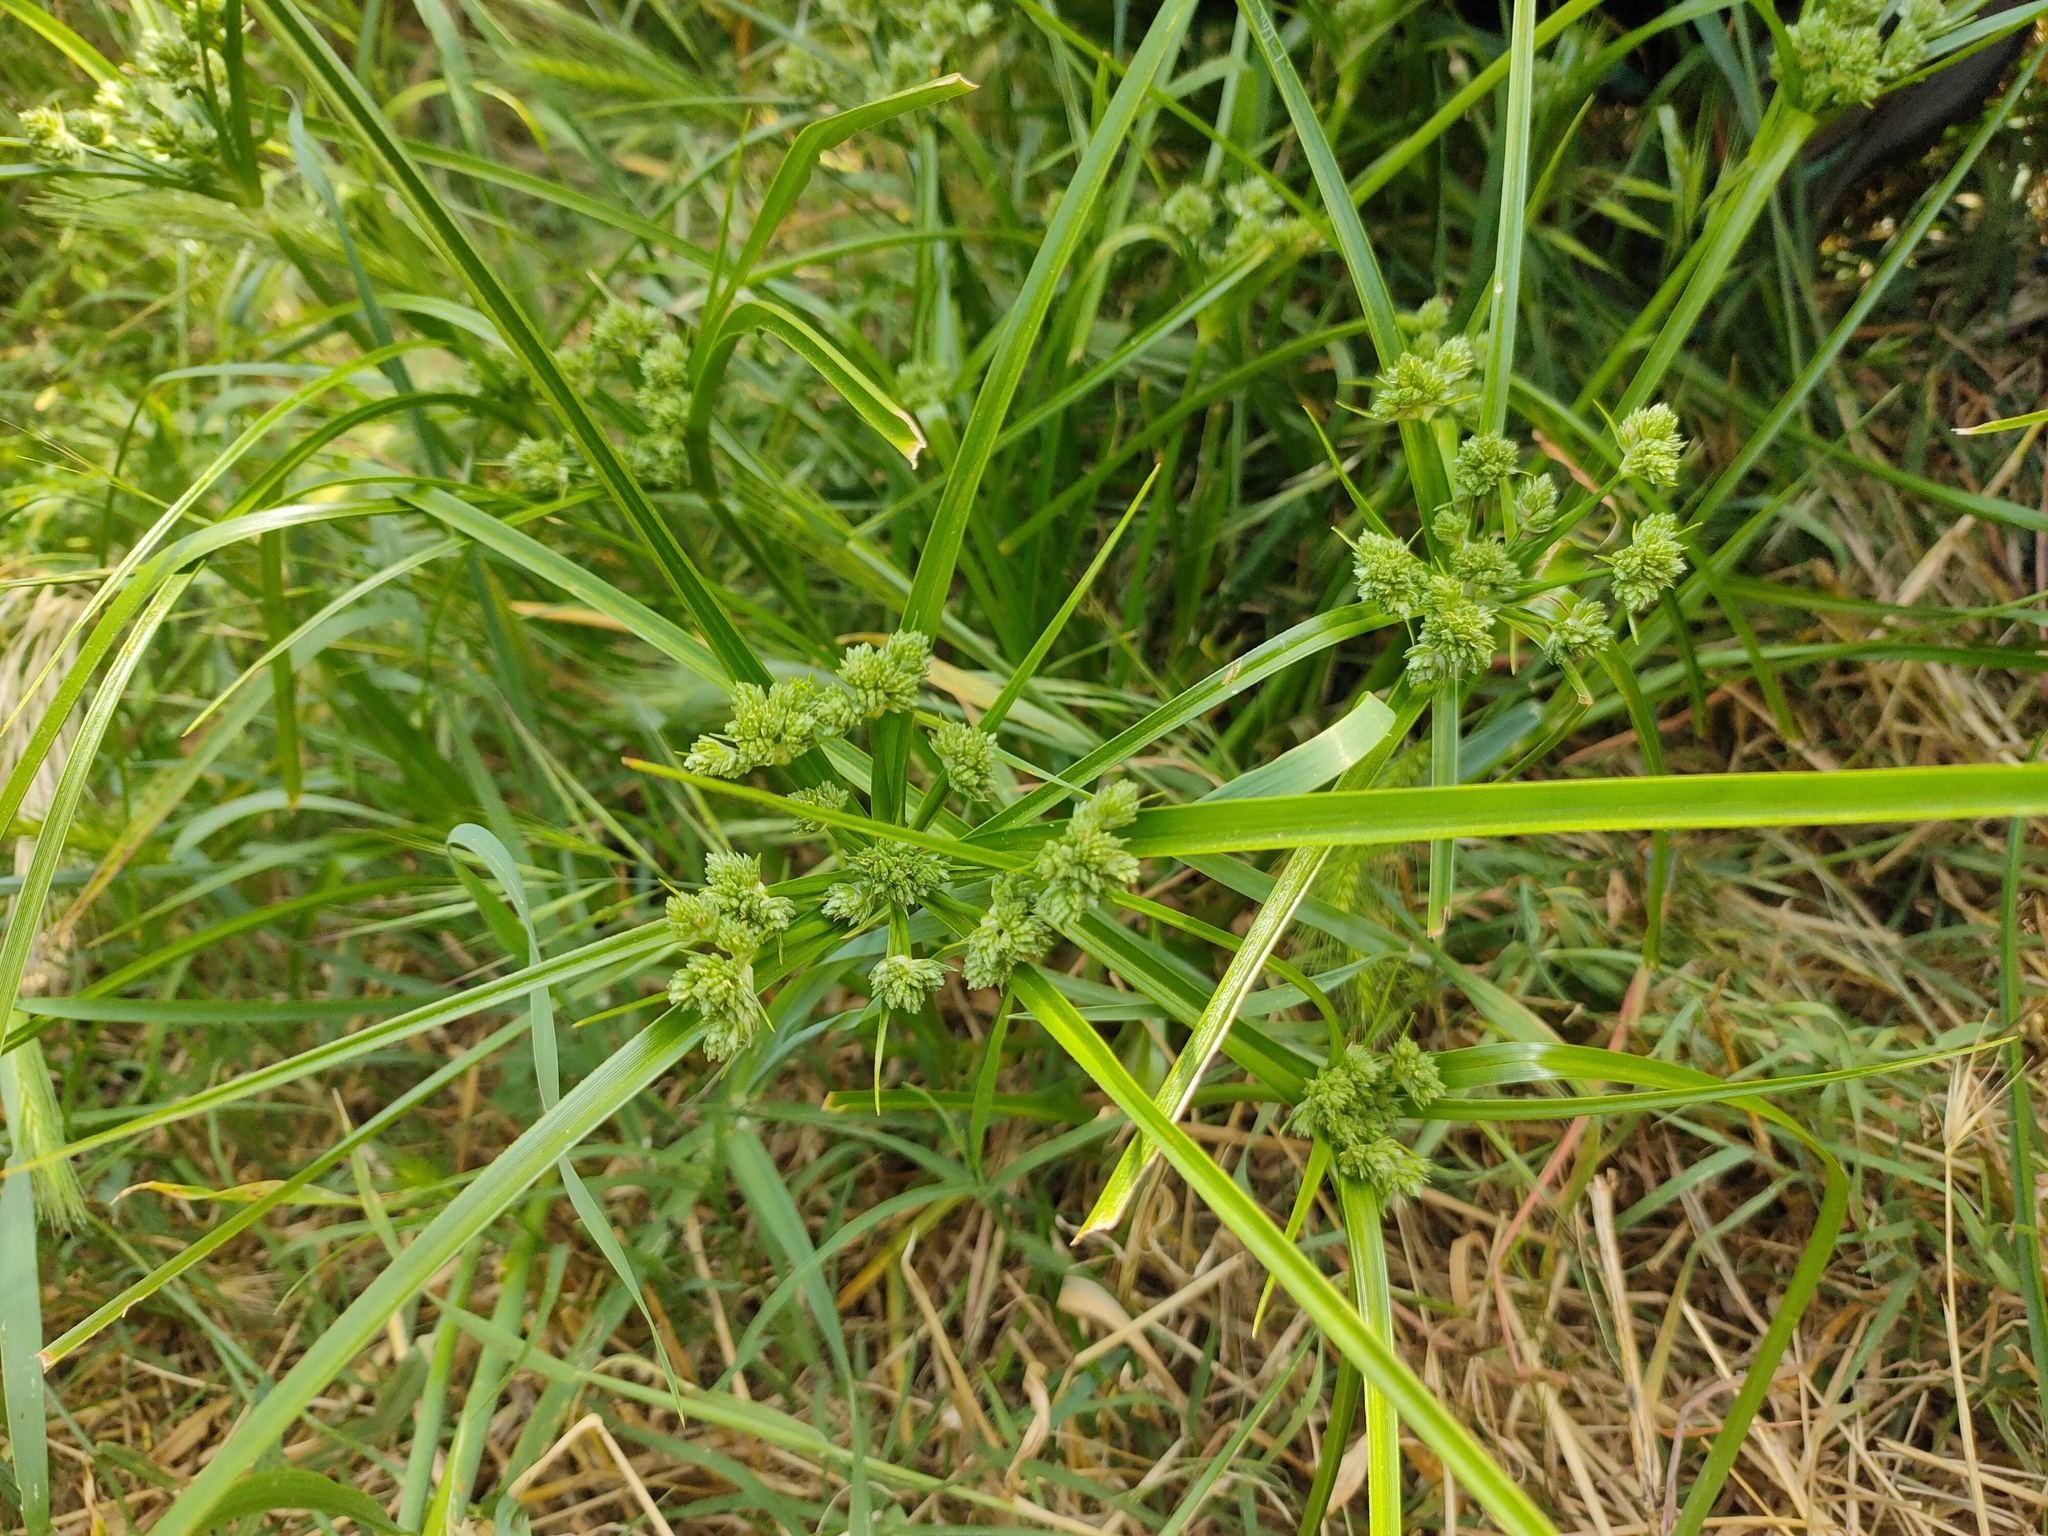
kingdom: Plantae
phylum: Tracheophyta
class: Liliopsida
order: Poales
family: Cyperaceae
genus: Cyperus
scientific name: Cyperus eragrostis
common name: Tall flatsedge
